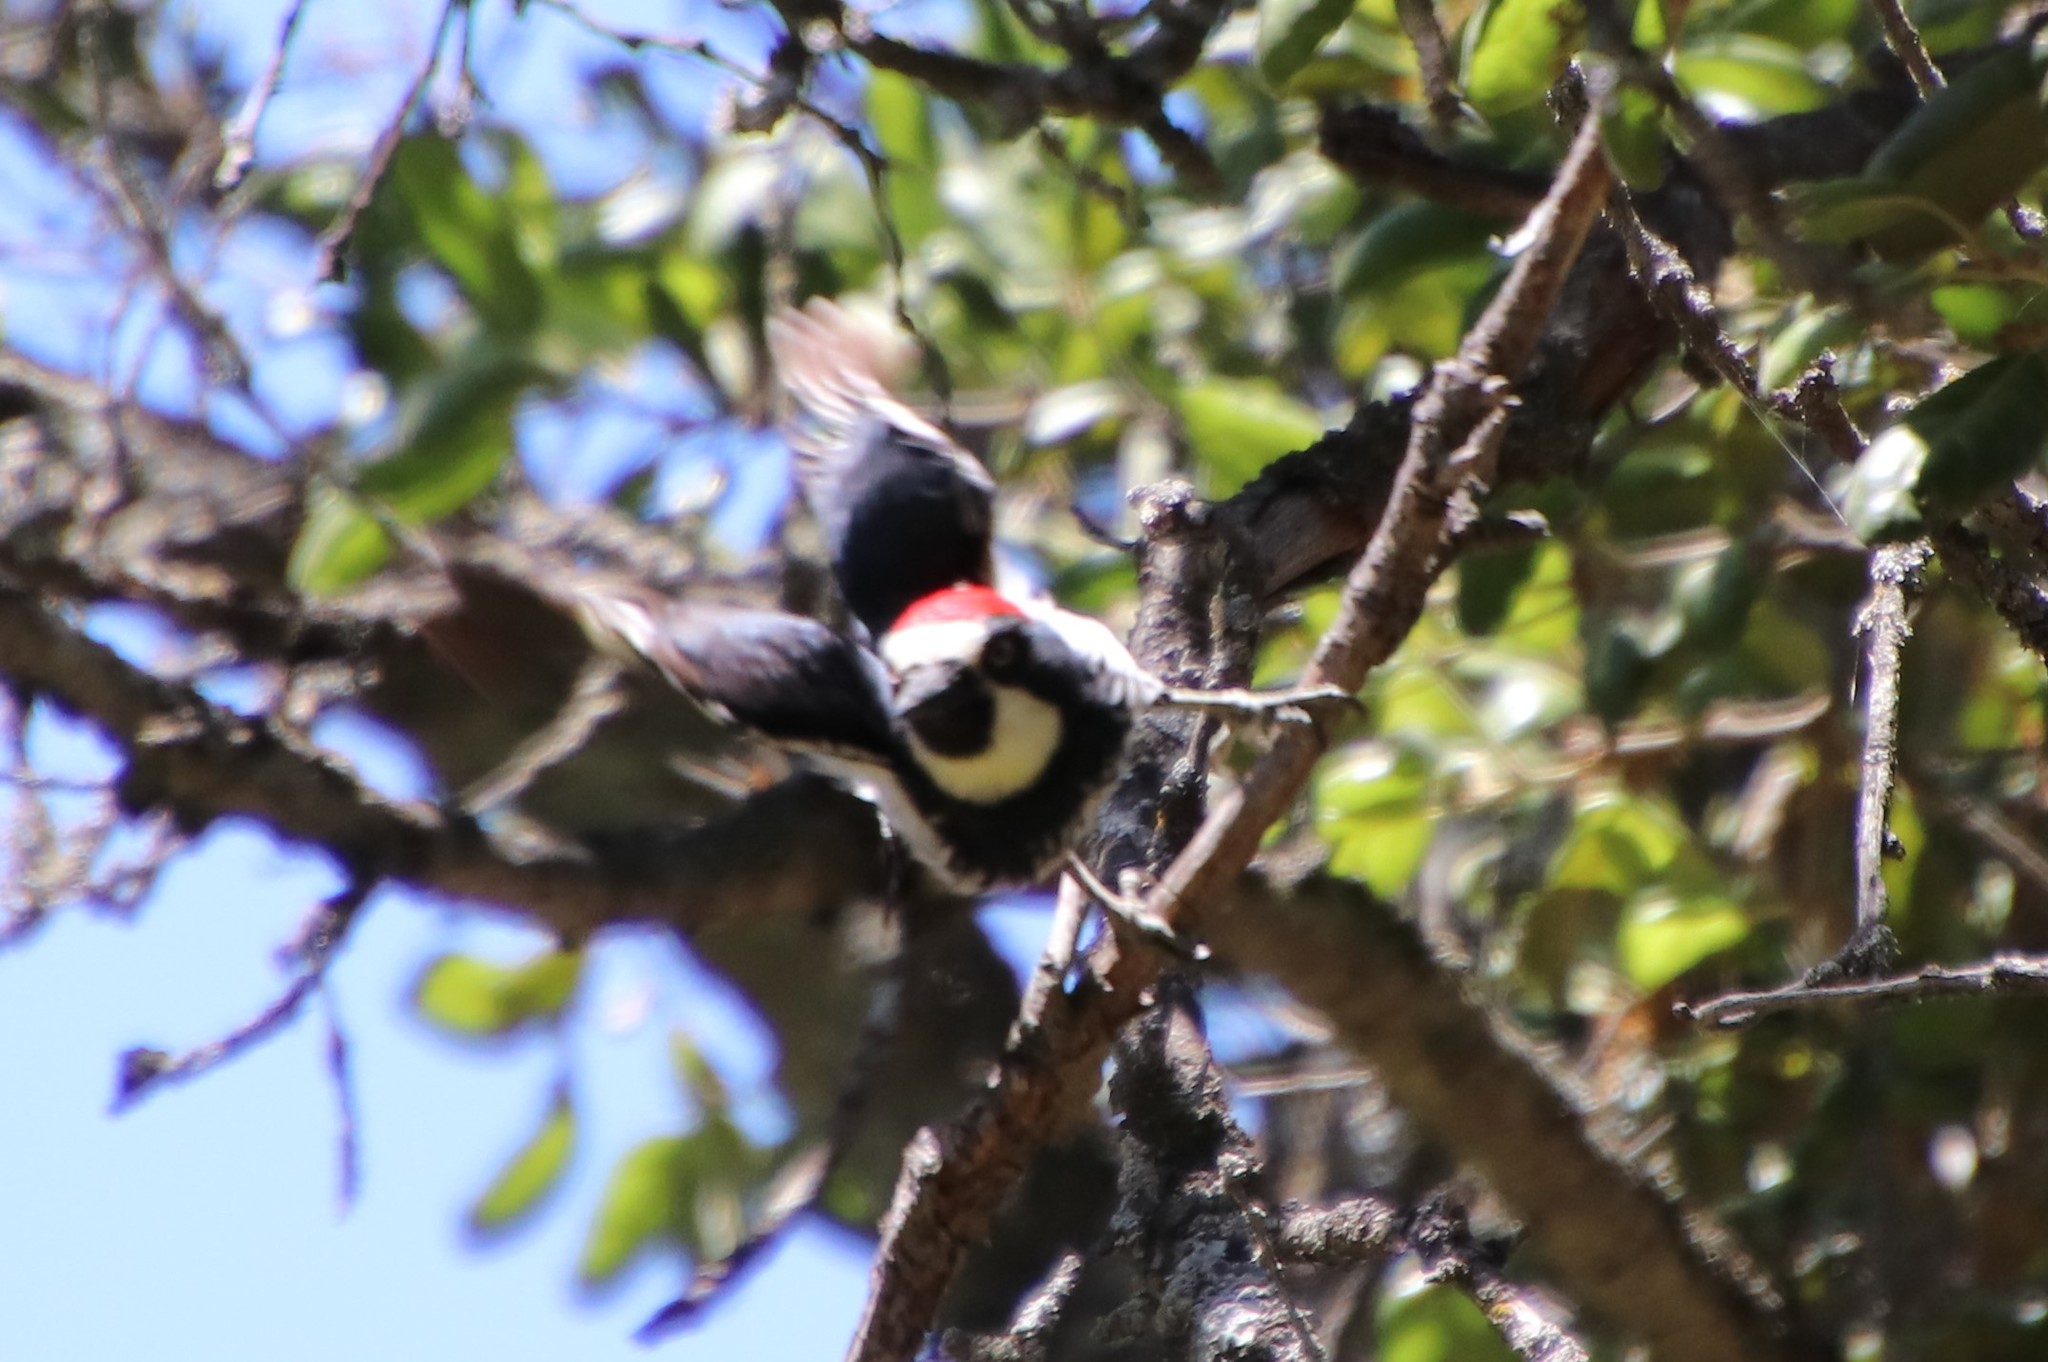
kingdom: Animalia
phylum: Chordata
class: Aves
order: Piciformes
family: Picidae
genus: Melanerpes
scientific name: Melanerpes formicivorus
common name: Acorn woodpecker
